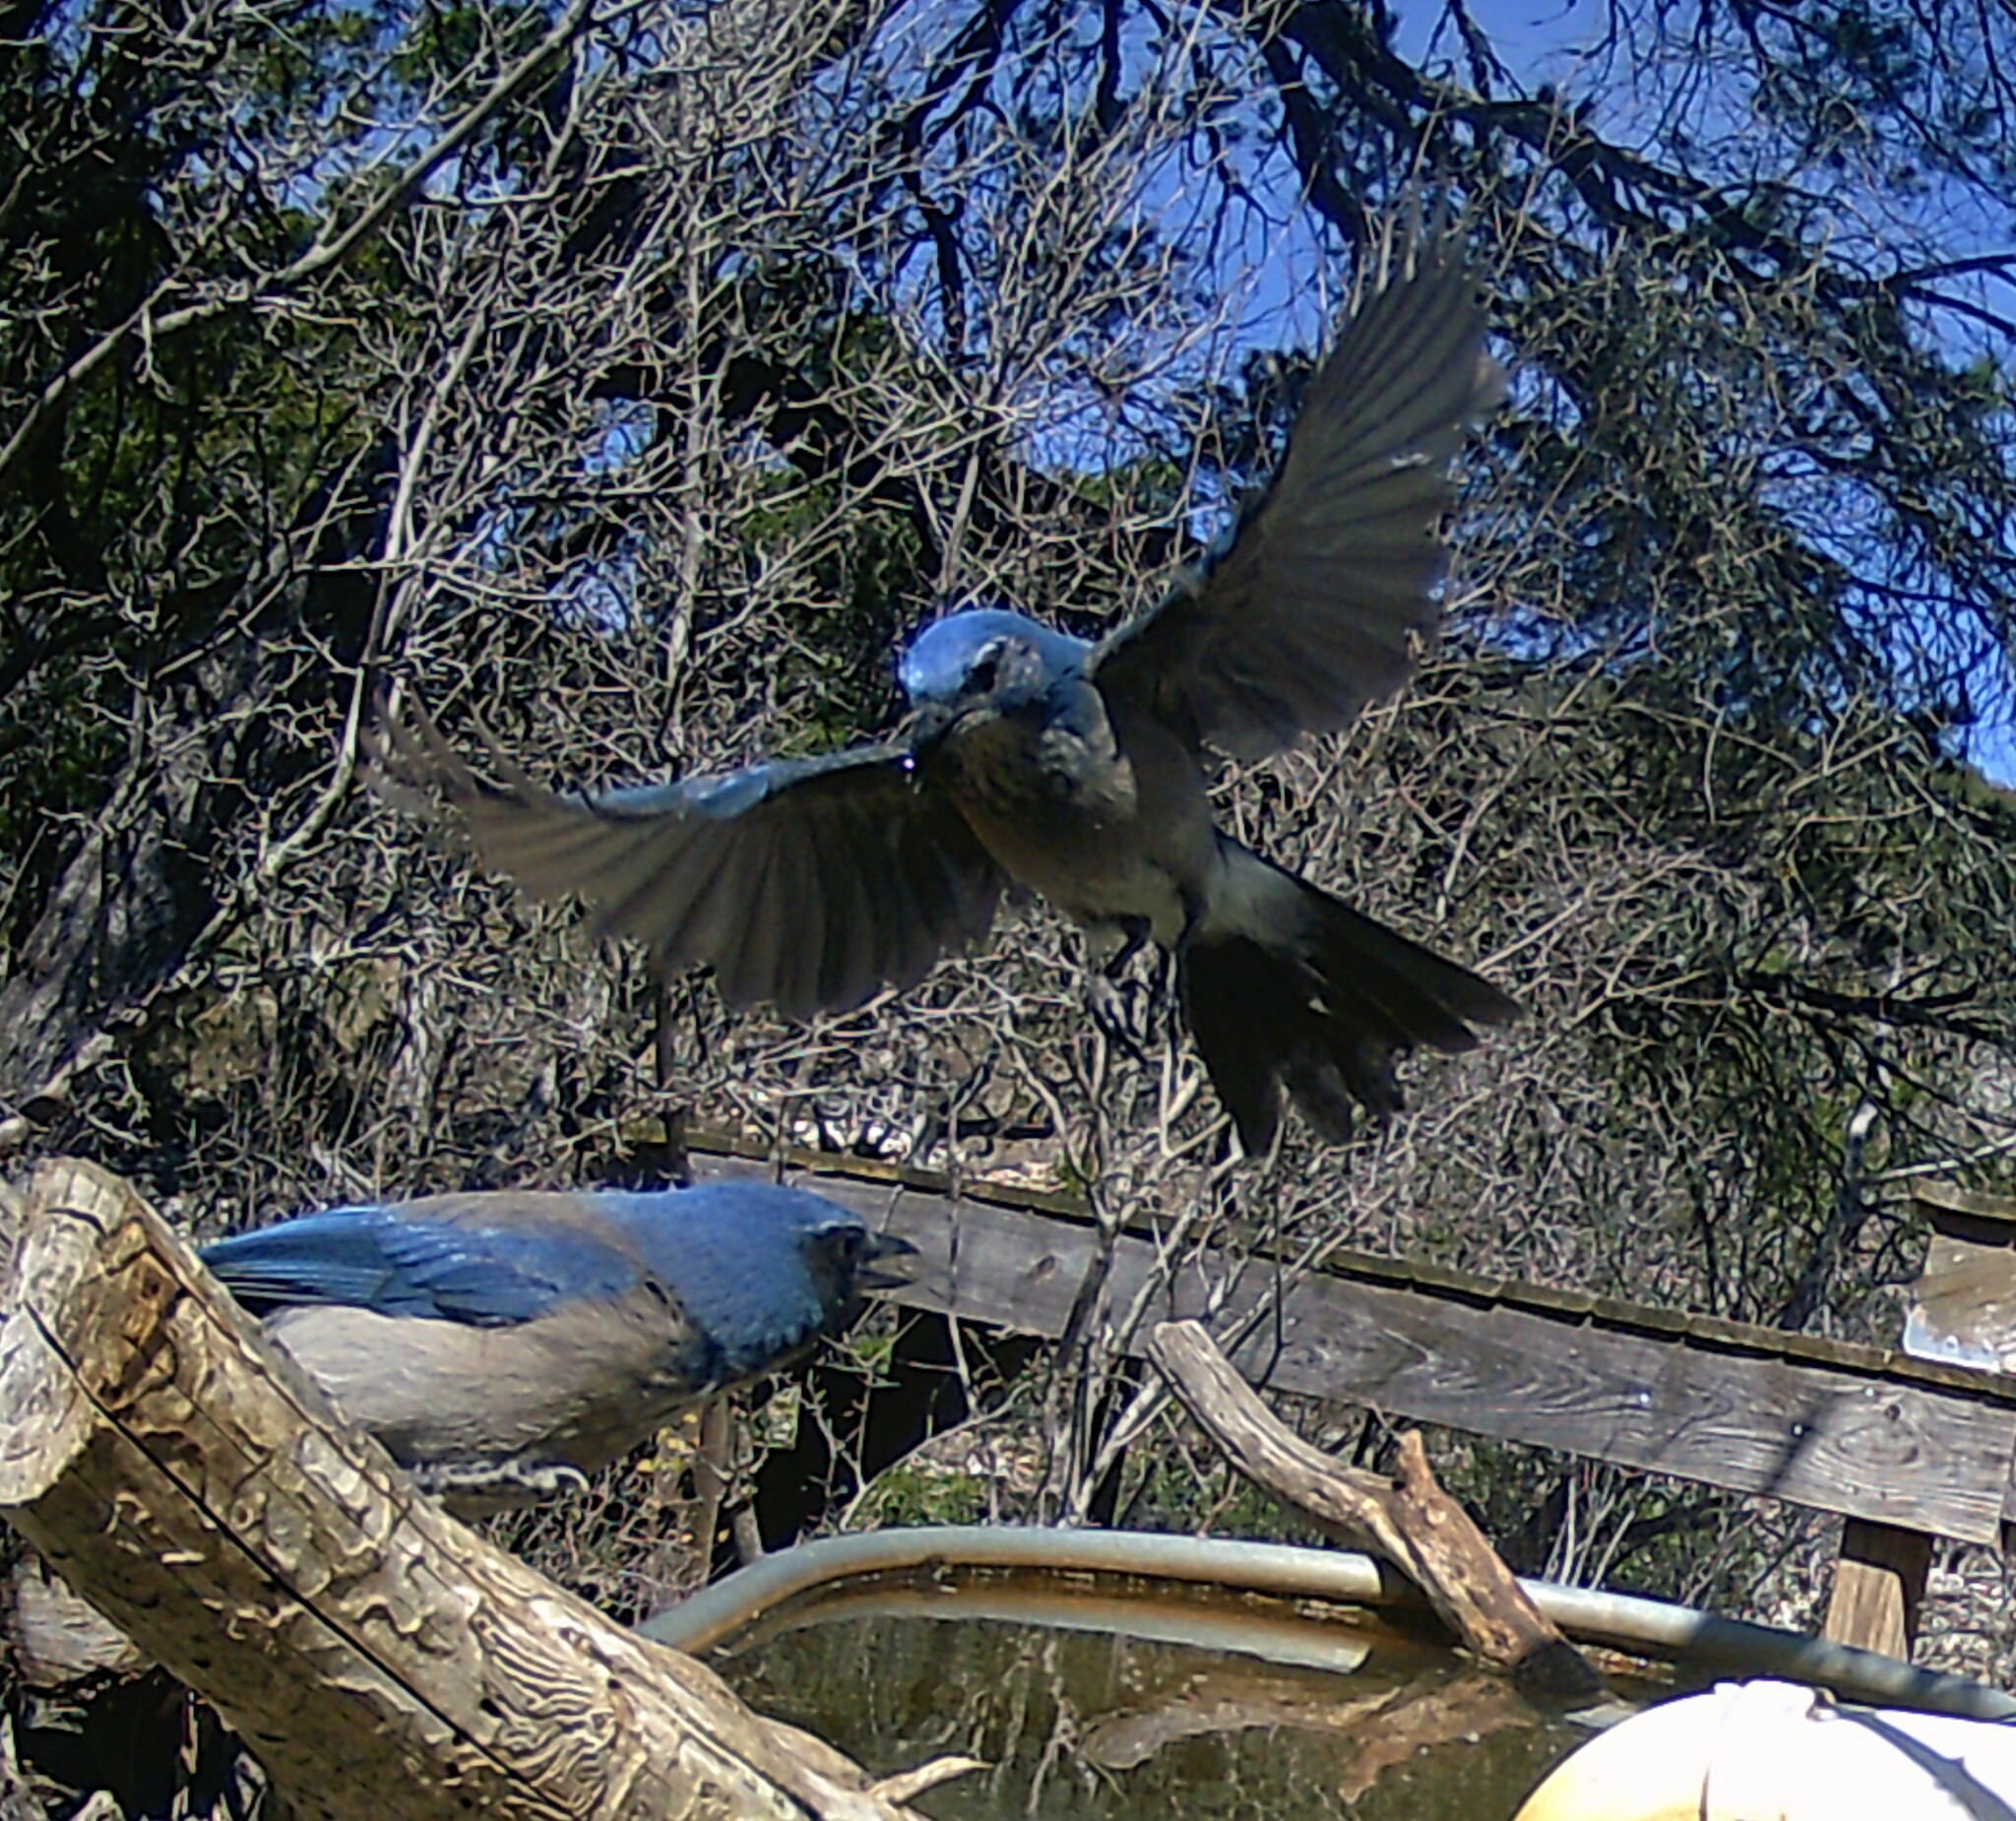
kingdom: Animalia
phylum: Chordata
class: Aves
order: Passeriformes
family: Corvidae
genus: Aphelocoma
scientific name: Aphelocoma woodhouseii
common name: Woodhouse's scrub-jay
